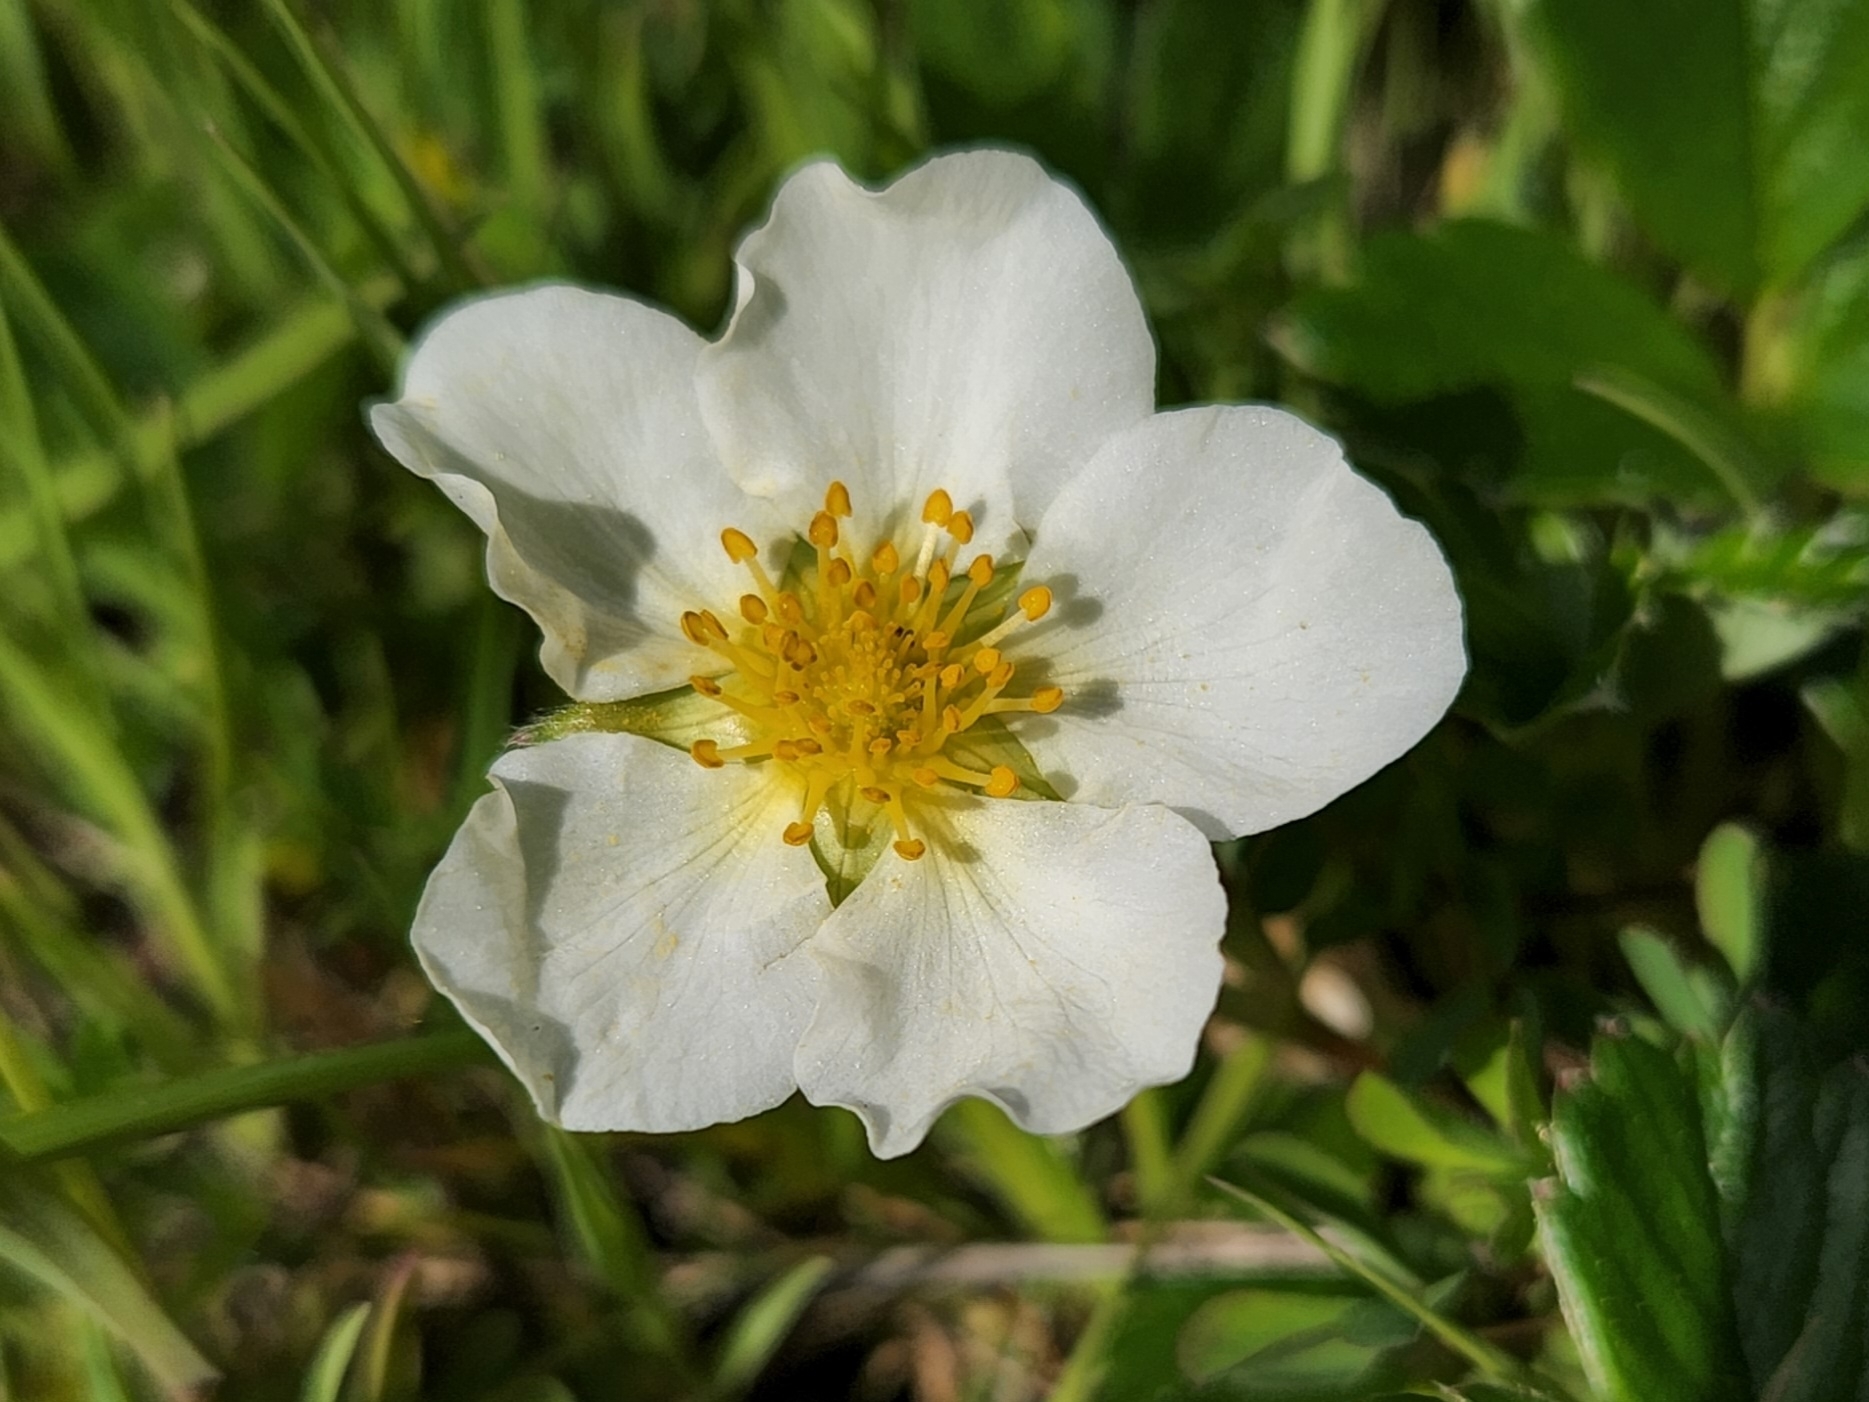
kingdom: Plantae
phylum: Tracheophyta
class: Magnoliopsida
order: Rosales
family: Rosaceae
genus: Fragaria
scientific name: Fragaria chiloensis
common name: Beach strawberry
